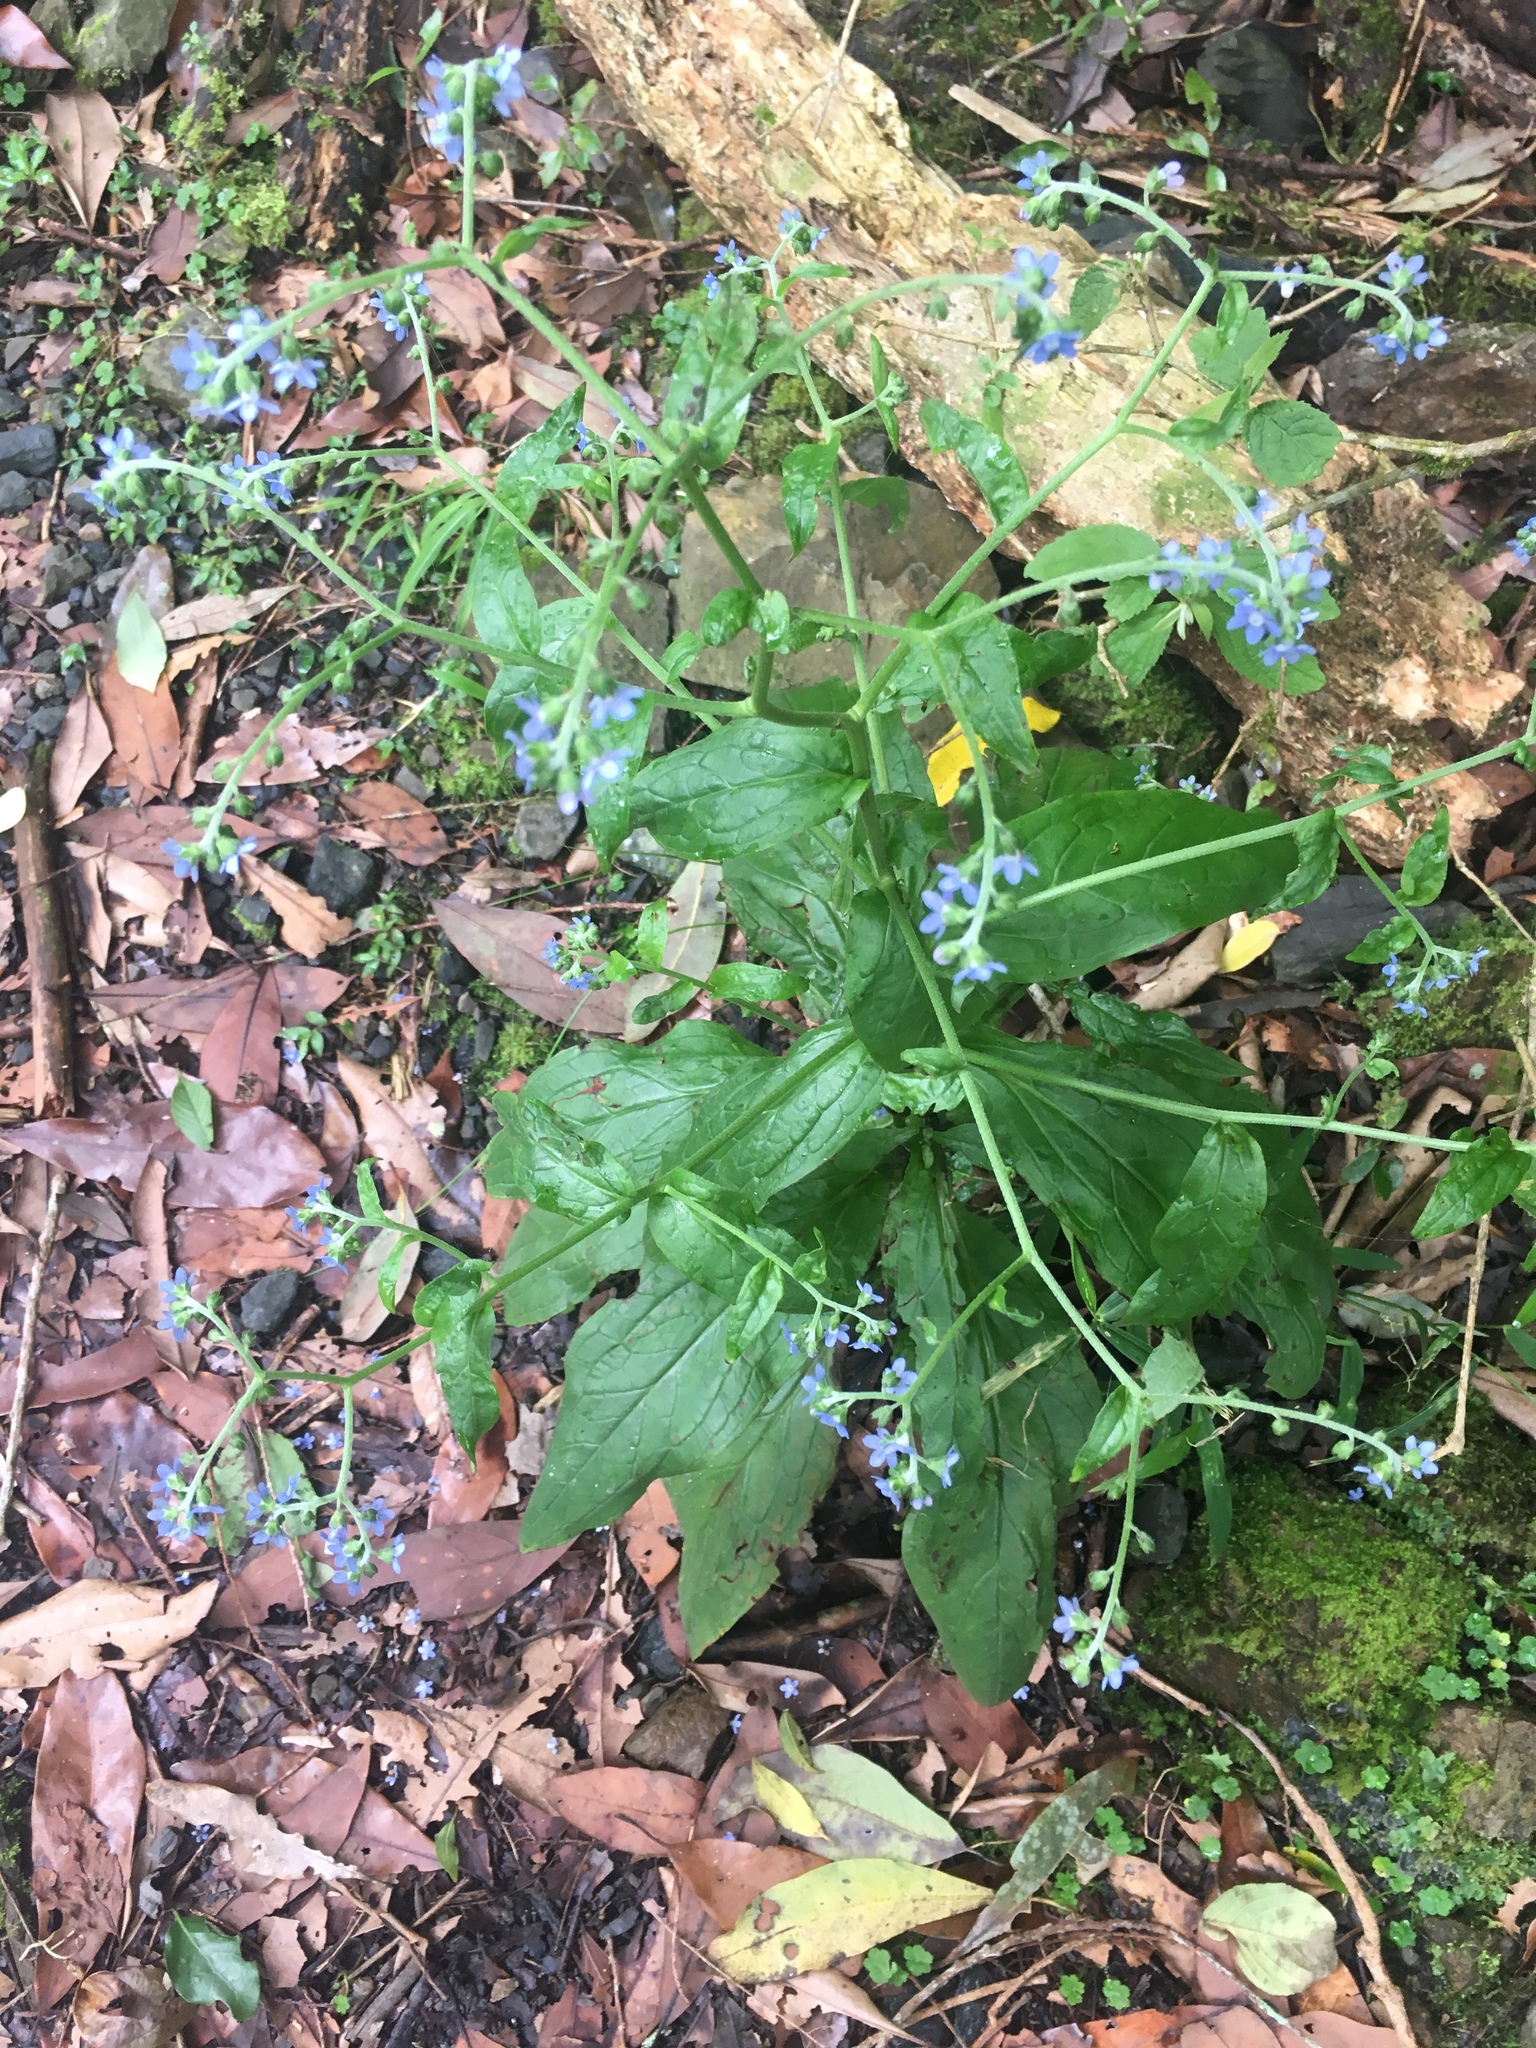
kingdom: Plantae
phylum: Tracheophyta
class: Magnoliopsida
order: Boraginales
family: Boraginaceae
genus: Cynoglossum
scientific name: Cynoglossum zeylanicum
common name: Ceylon hound's tongue
